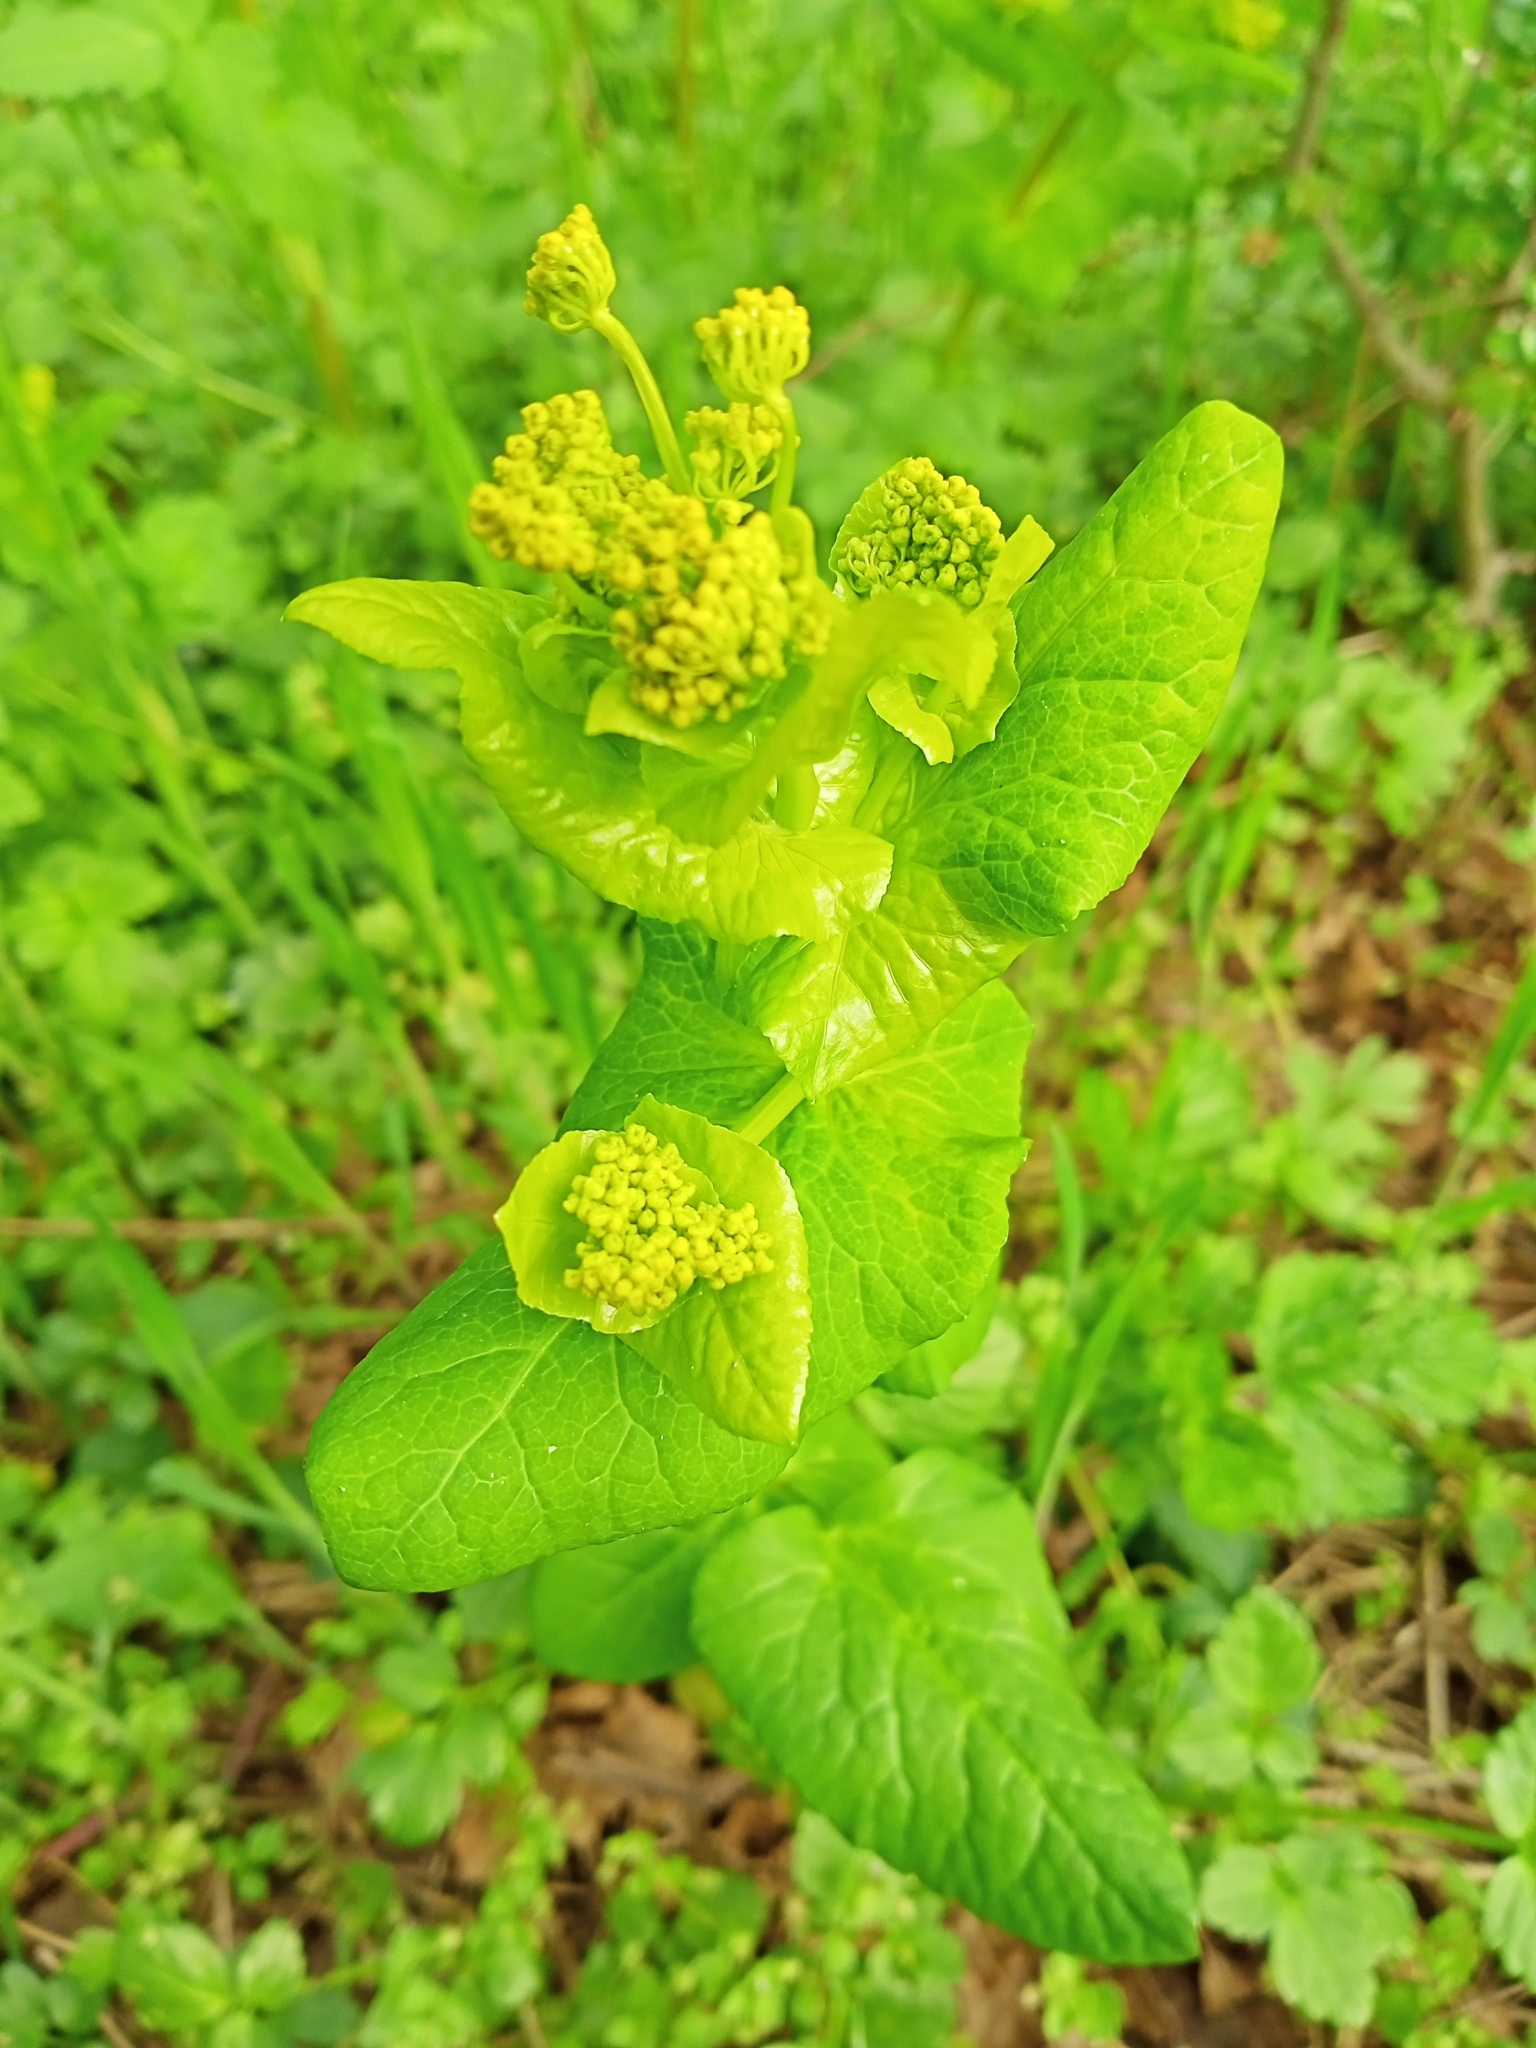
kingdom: Plantae
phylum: Tracheophyta
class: Magnoliopsida
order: Apiales
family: Apiaceae
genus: Smyrnium
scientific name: Smyrnium perfoliatum
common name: Perfoliate alexanders
